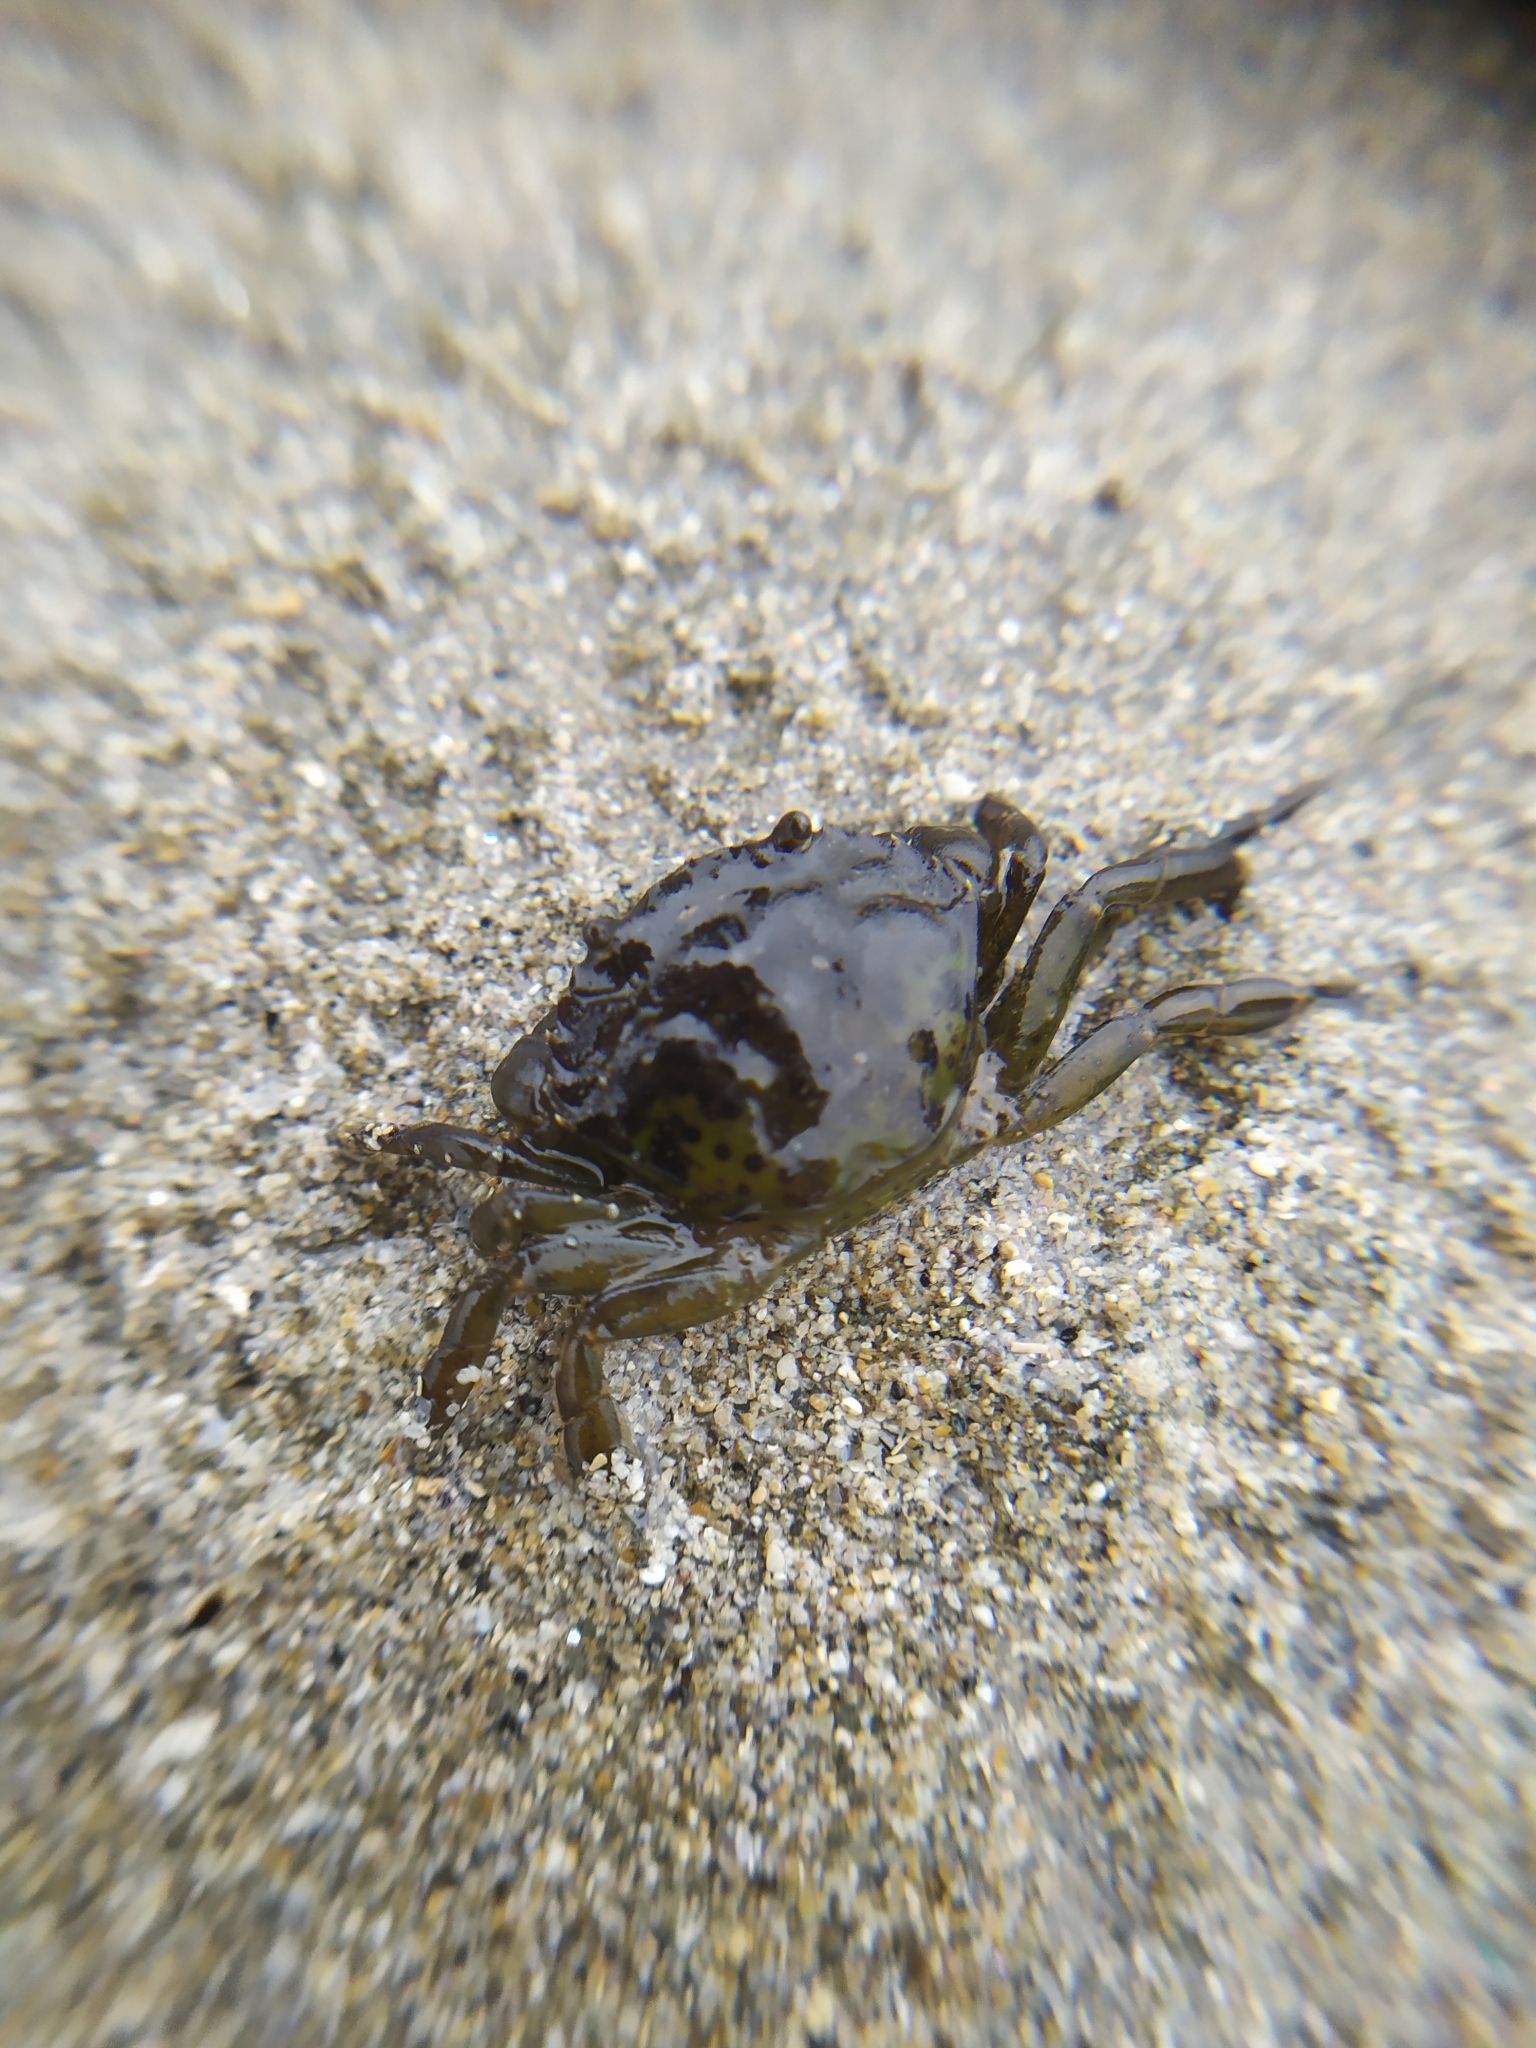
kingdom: Animalia
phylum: Arthropoda
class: Malacostraca
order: Decapoda
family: Carcinidae
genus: Carcinus
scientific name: Carcinus maenas
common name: European green crab
